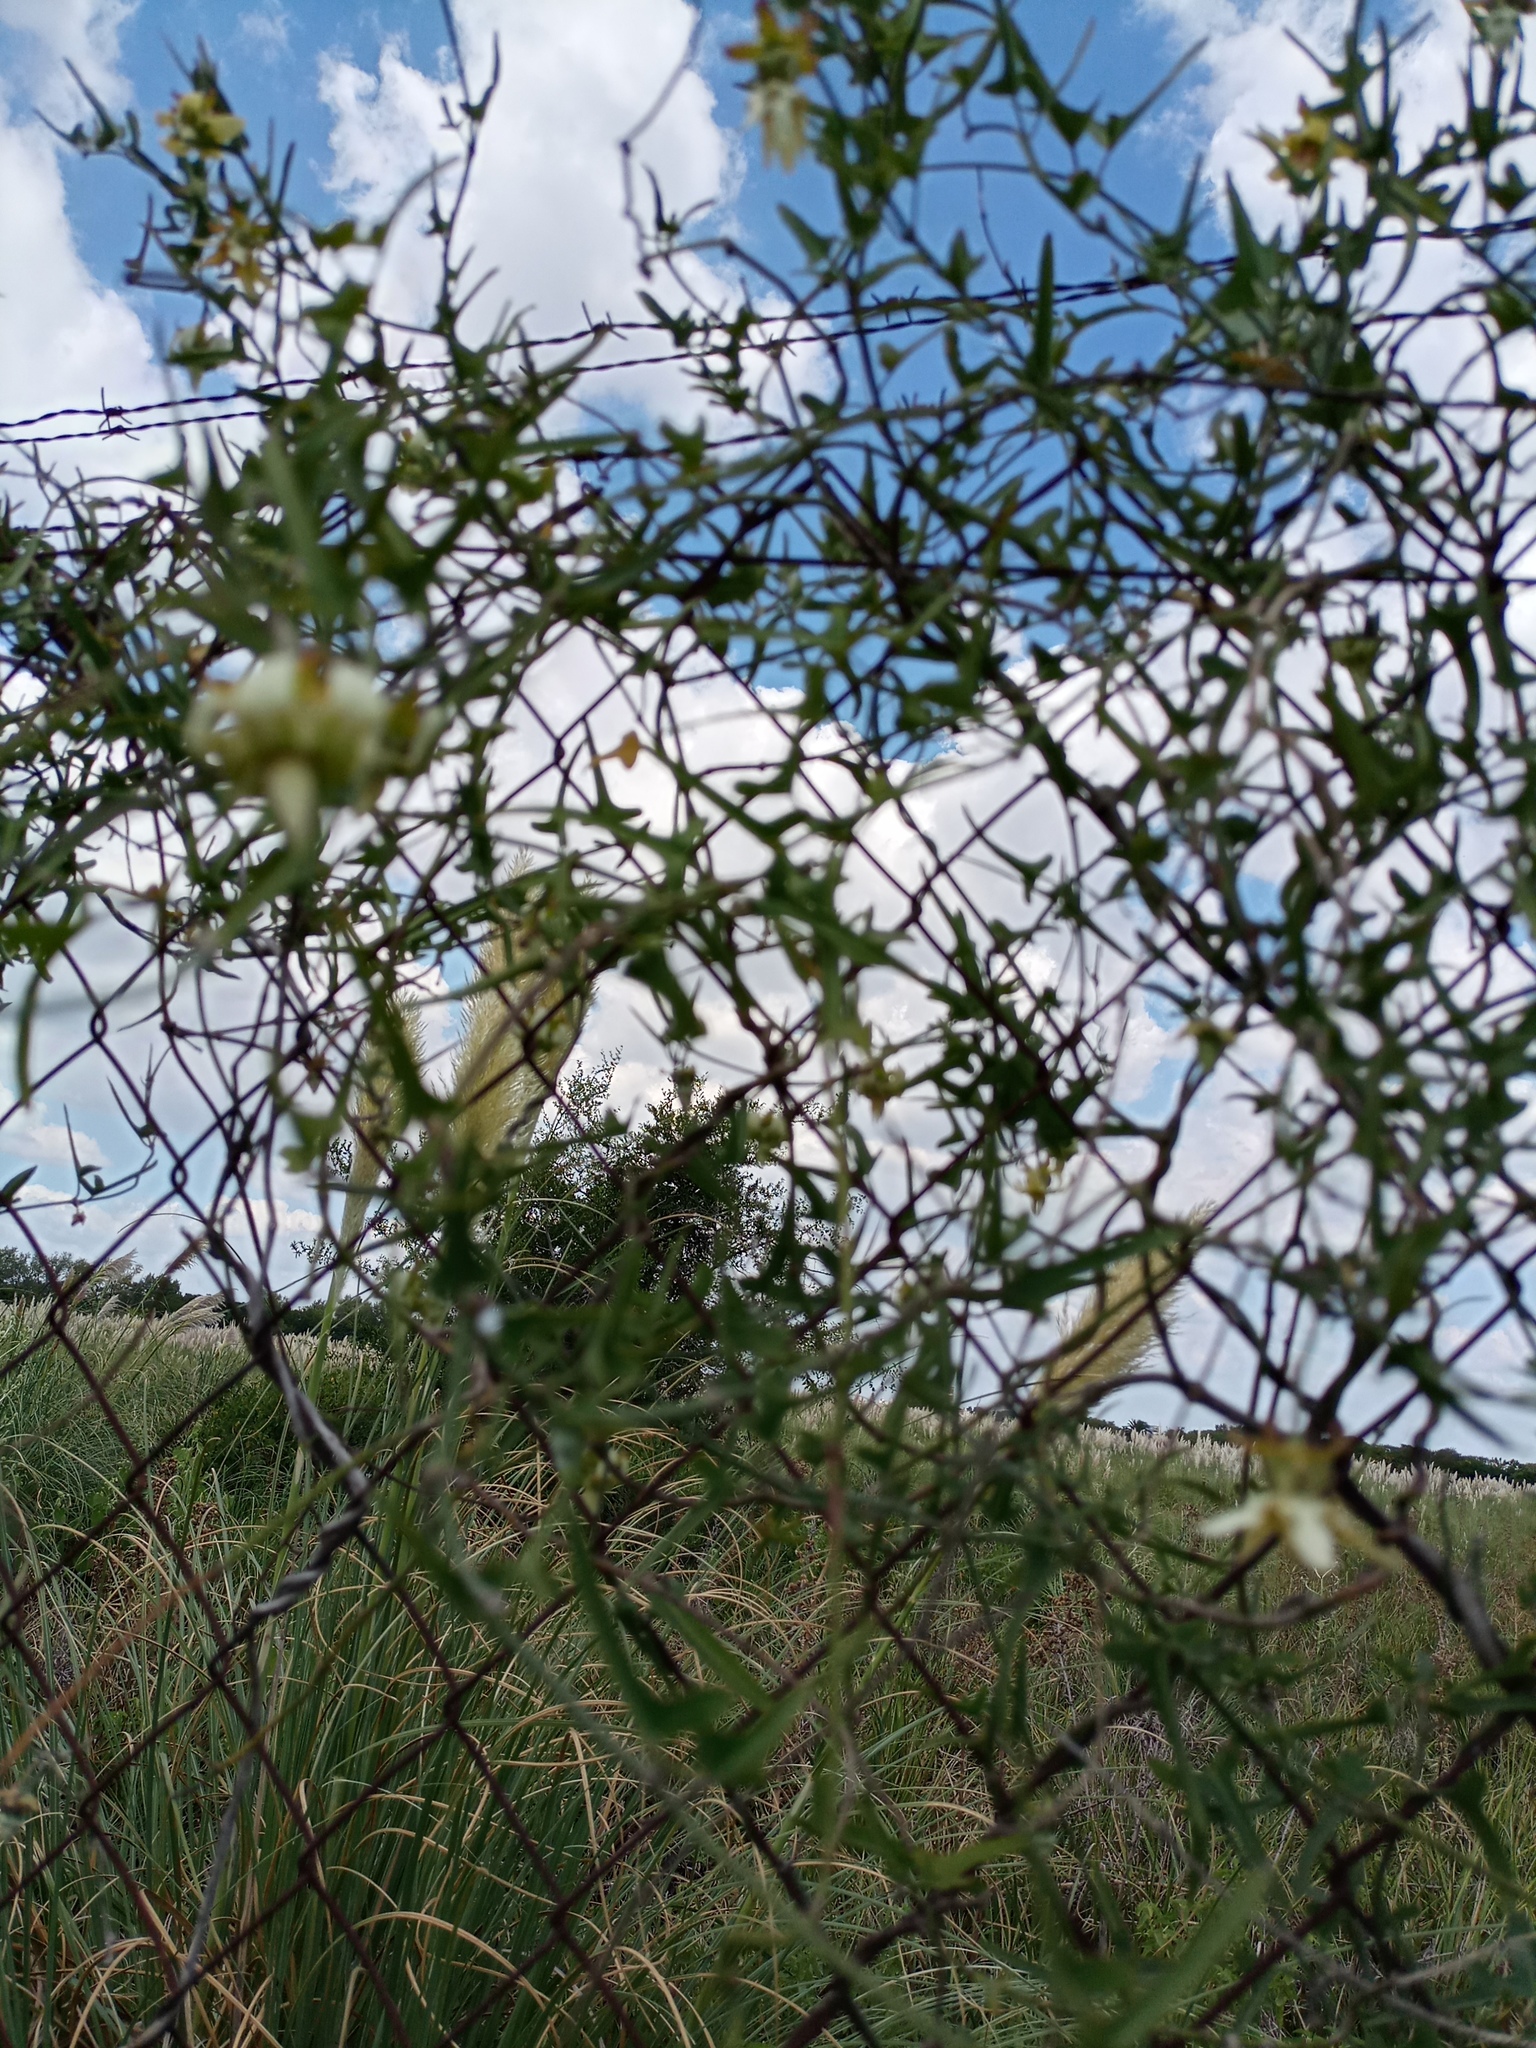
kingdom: Plantae
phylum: Tracheophyta
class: Magnoliopsida
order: Gentianales
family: Apocynaceae
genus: Araujia
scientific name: Araujia angustifolia
